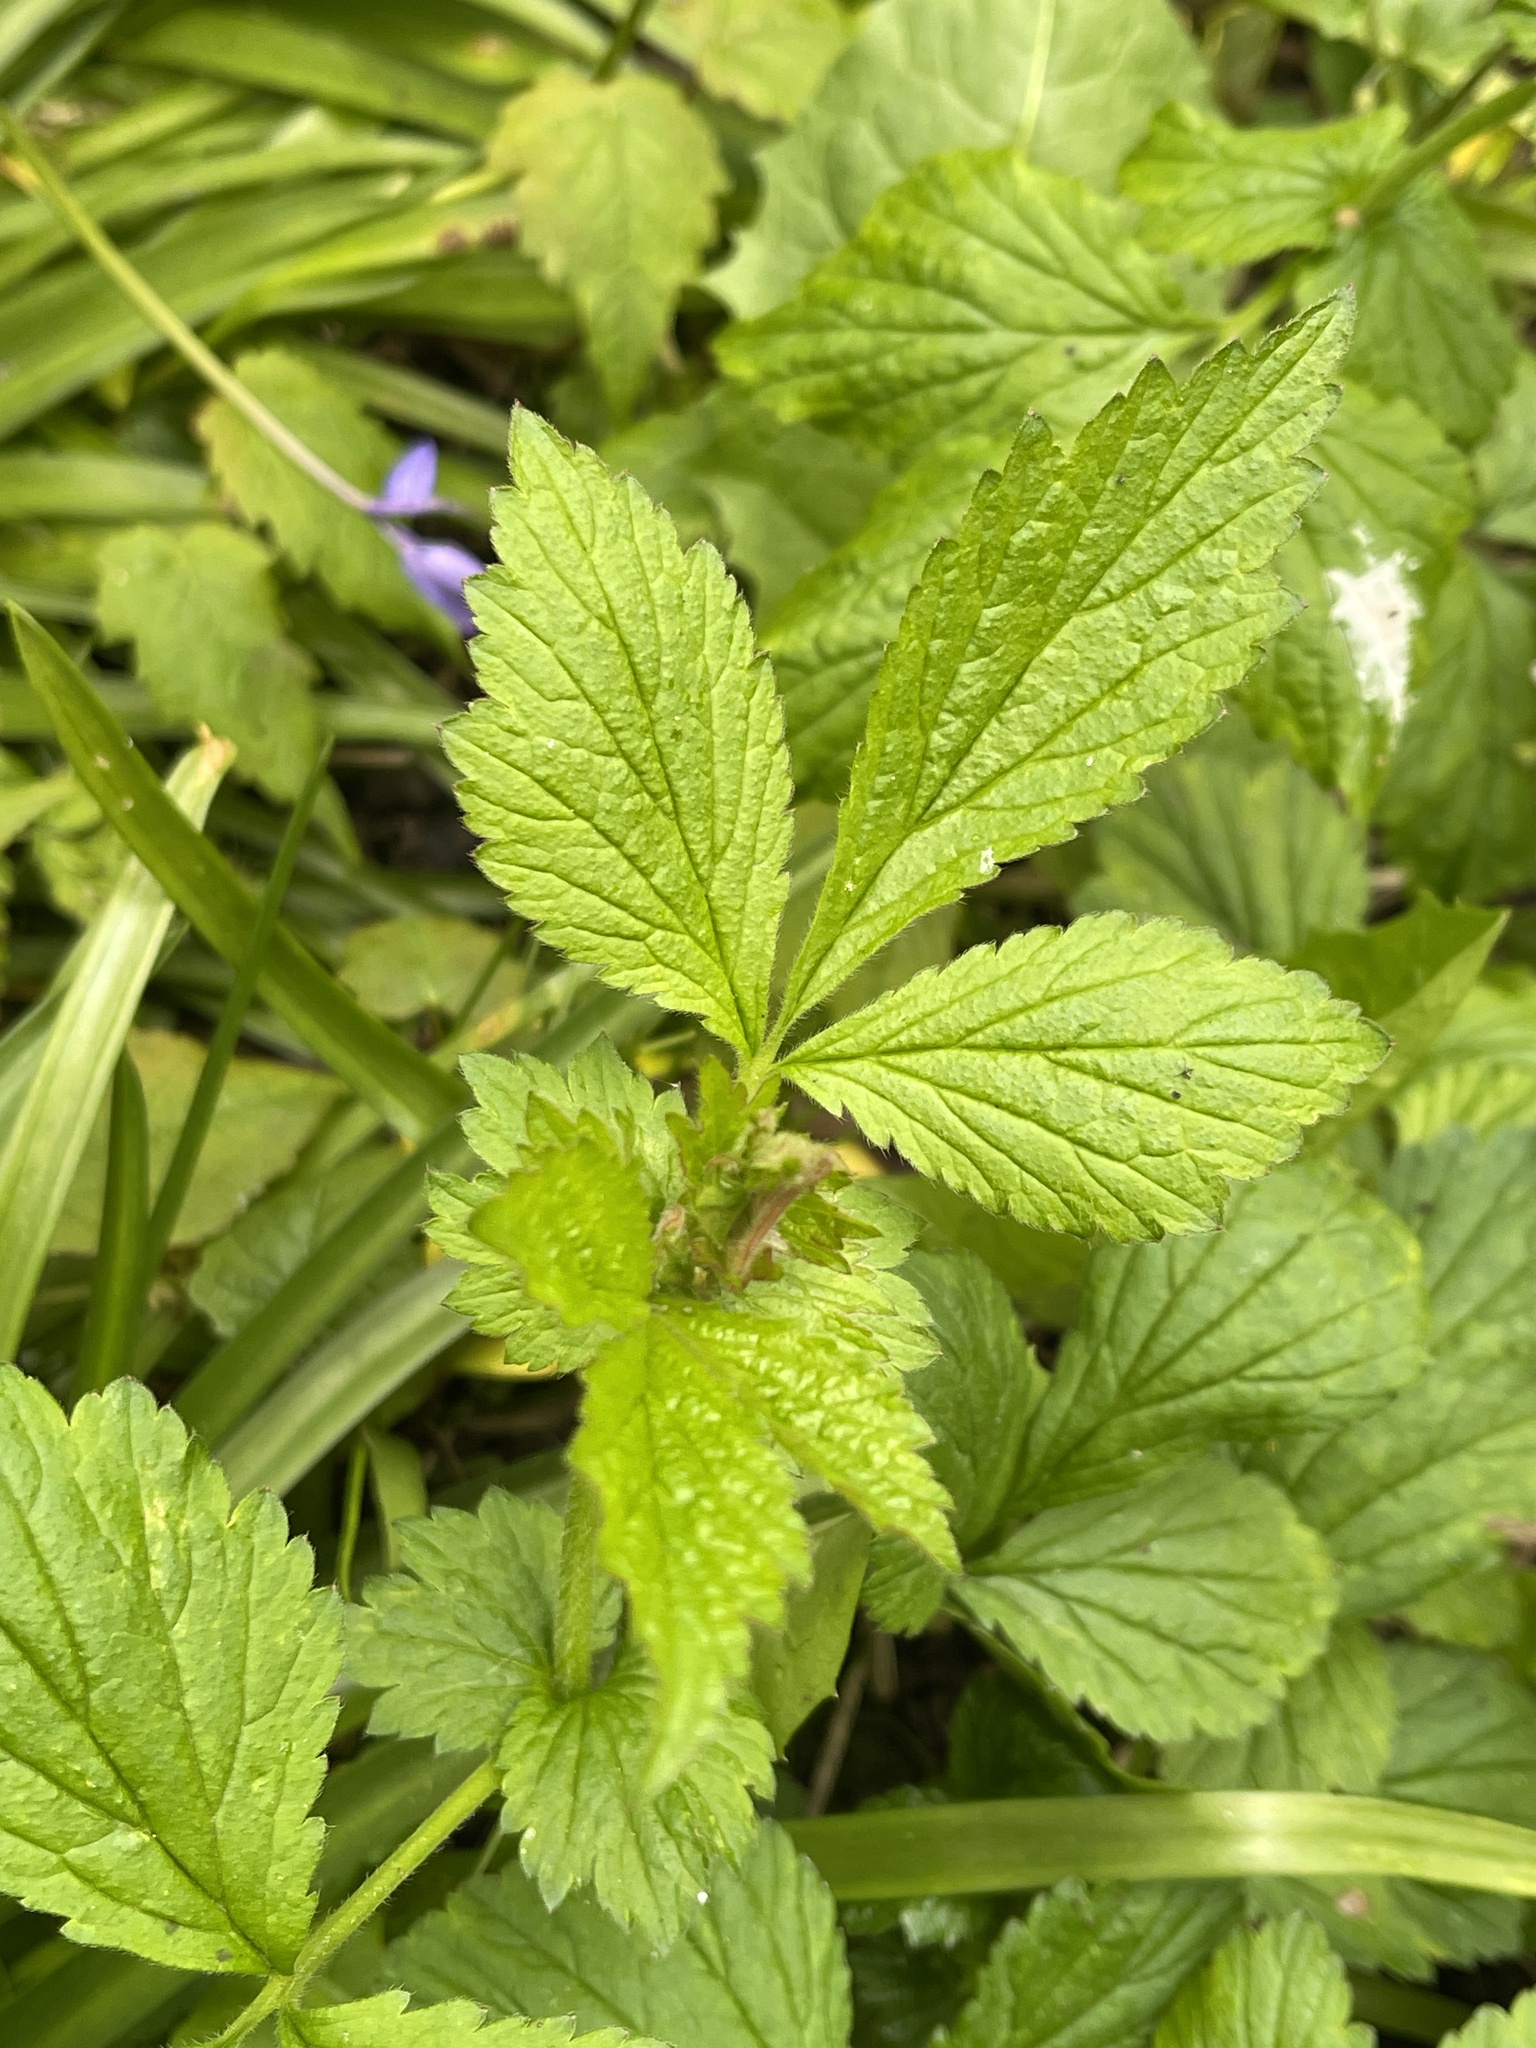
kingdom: Plantae
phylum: Tracheophyta
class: Magnoliopsida
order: Rosales
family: Rosaceae
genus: Geum
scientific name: Geum urbanum
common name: Wood avens
